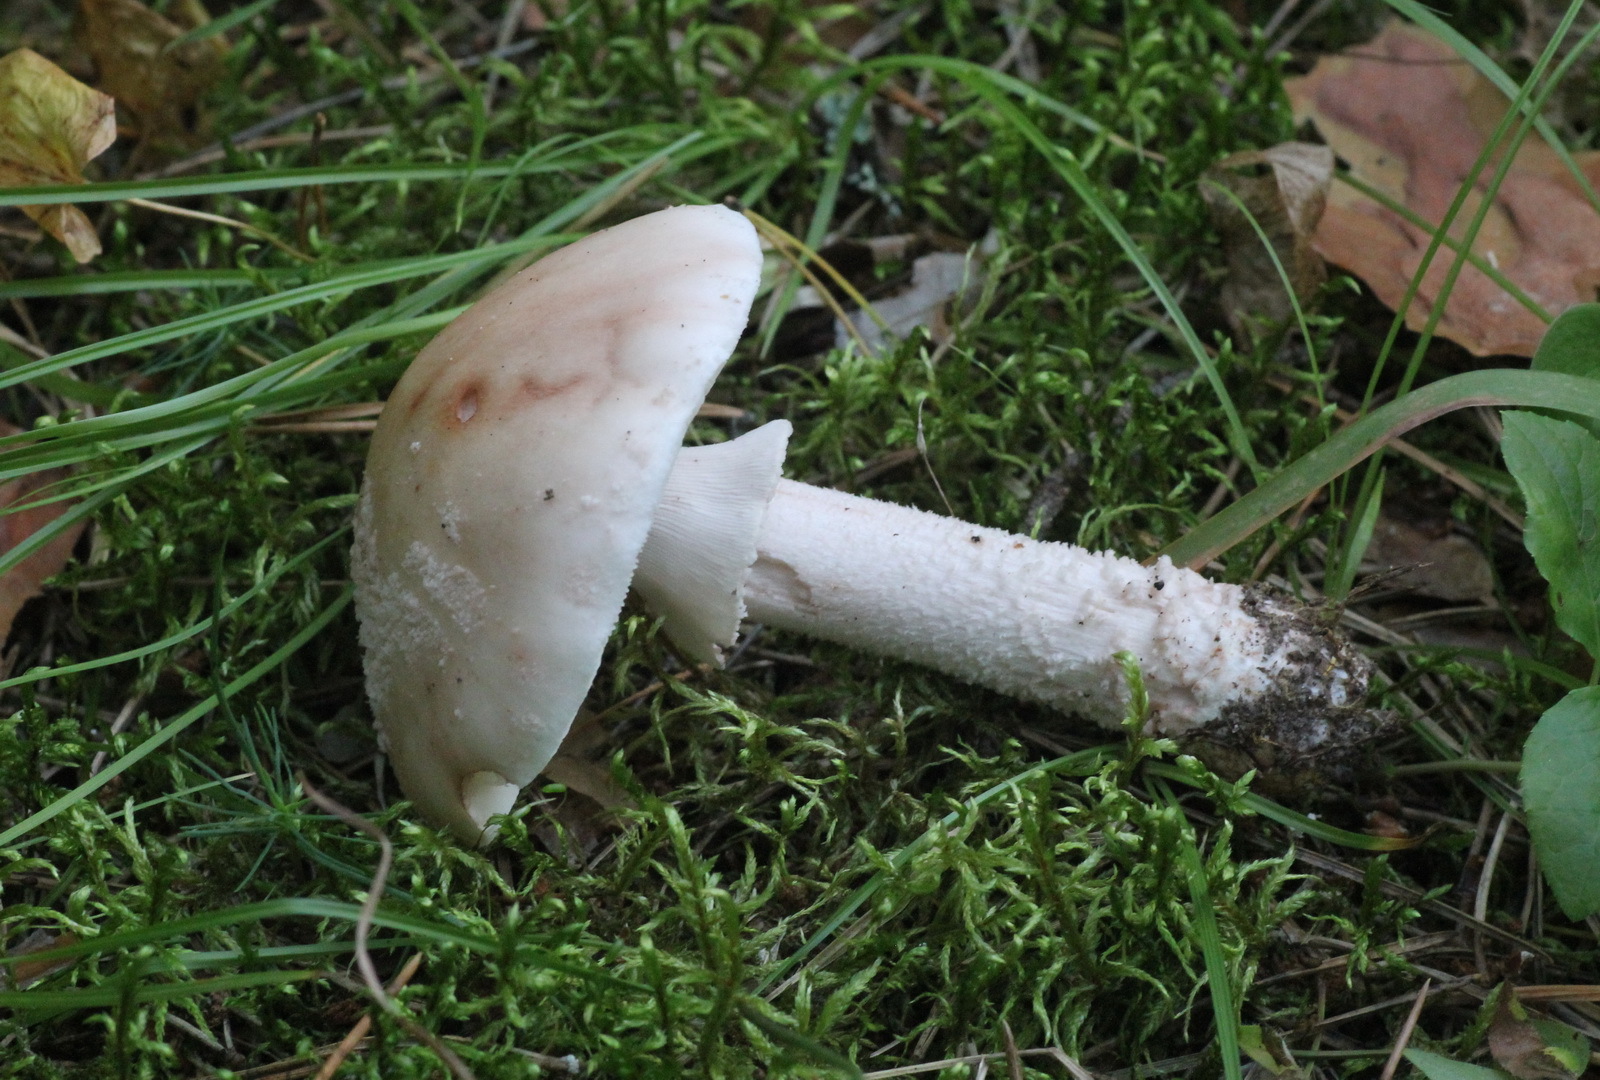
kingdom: Fungi
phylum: Basidiomycota
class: Agaricomycetes
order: Agaricales
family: Amanitaceae
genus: Amanita
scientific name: Amanita rubescens
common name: Blusher
